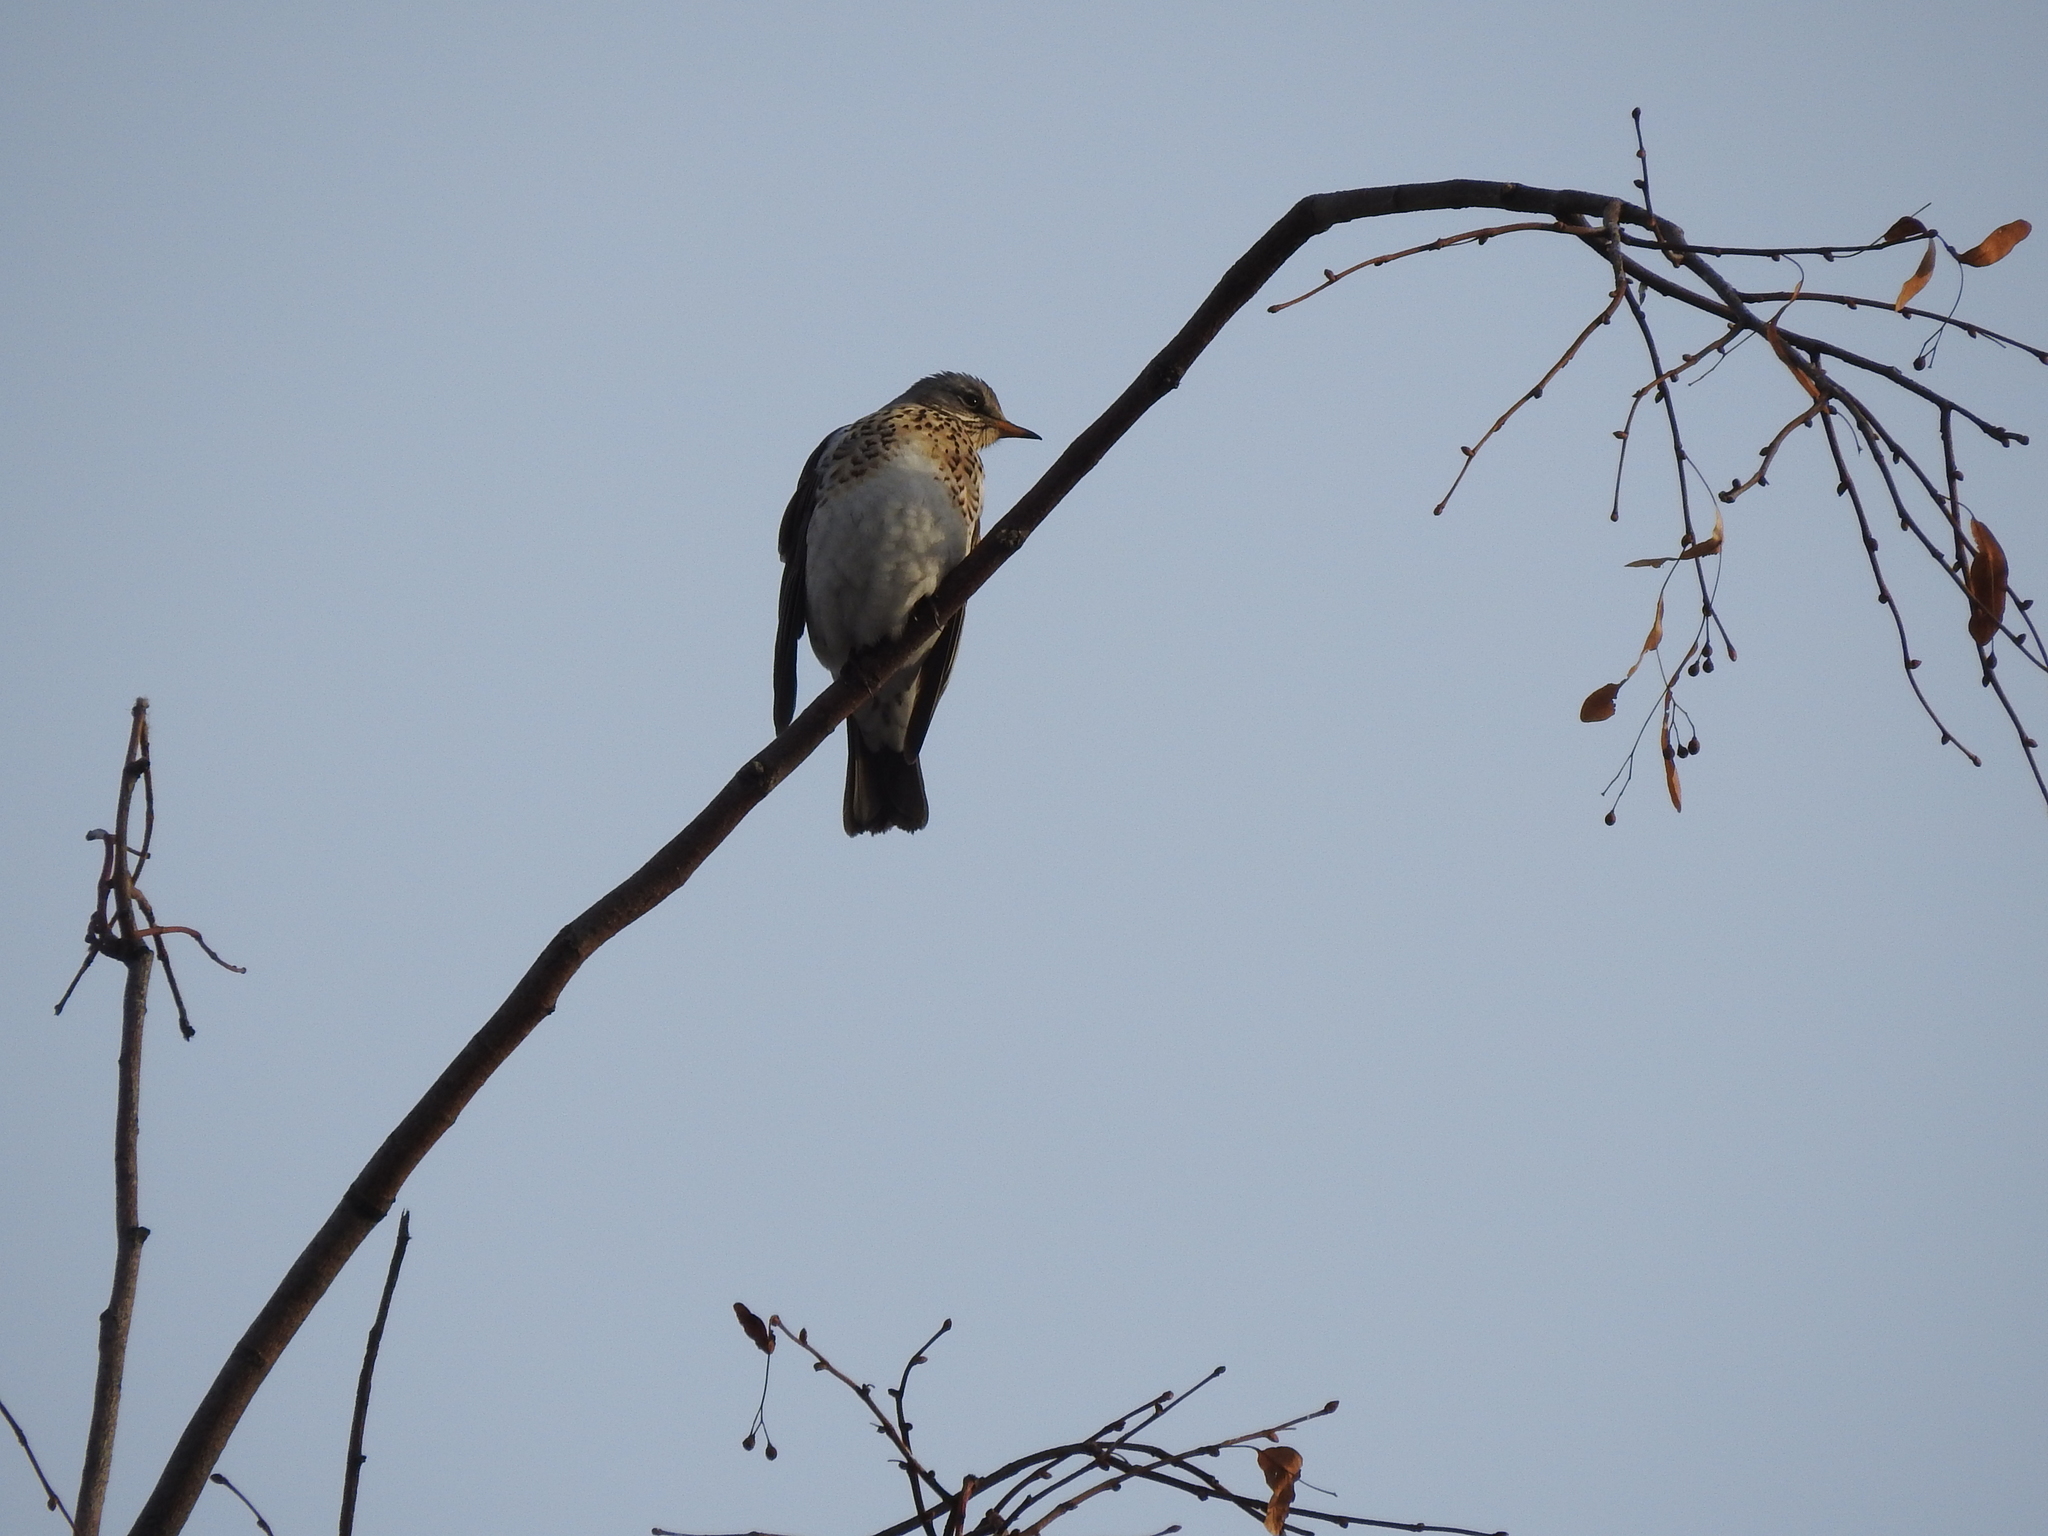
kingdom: Animalia
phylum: Chordata
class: Aves
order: Passeriformes
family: Turdidae
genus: Turdus
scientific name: Turdus pilaris
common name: Fieldfare
